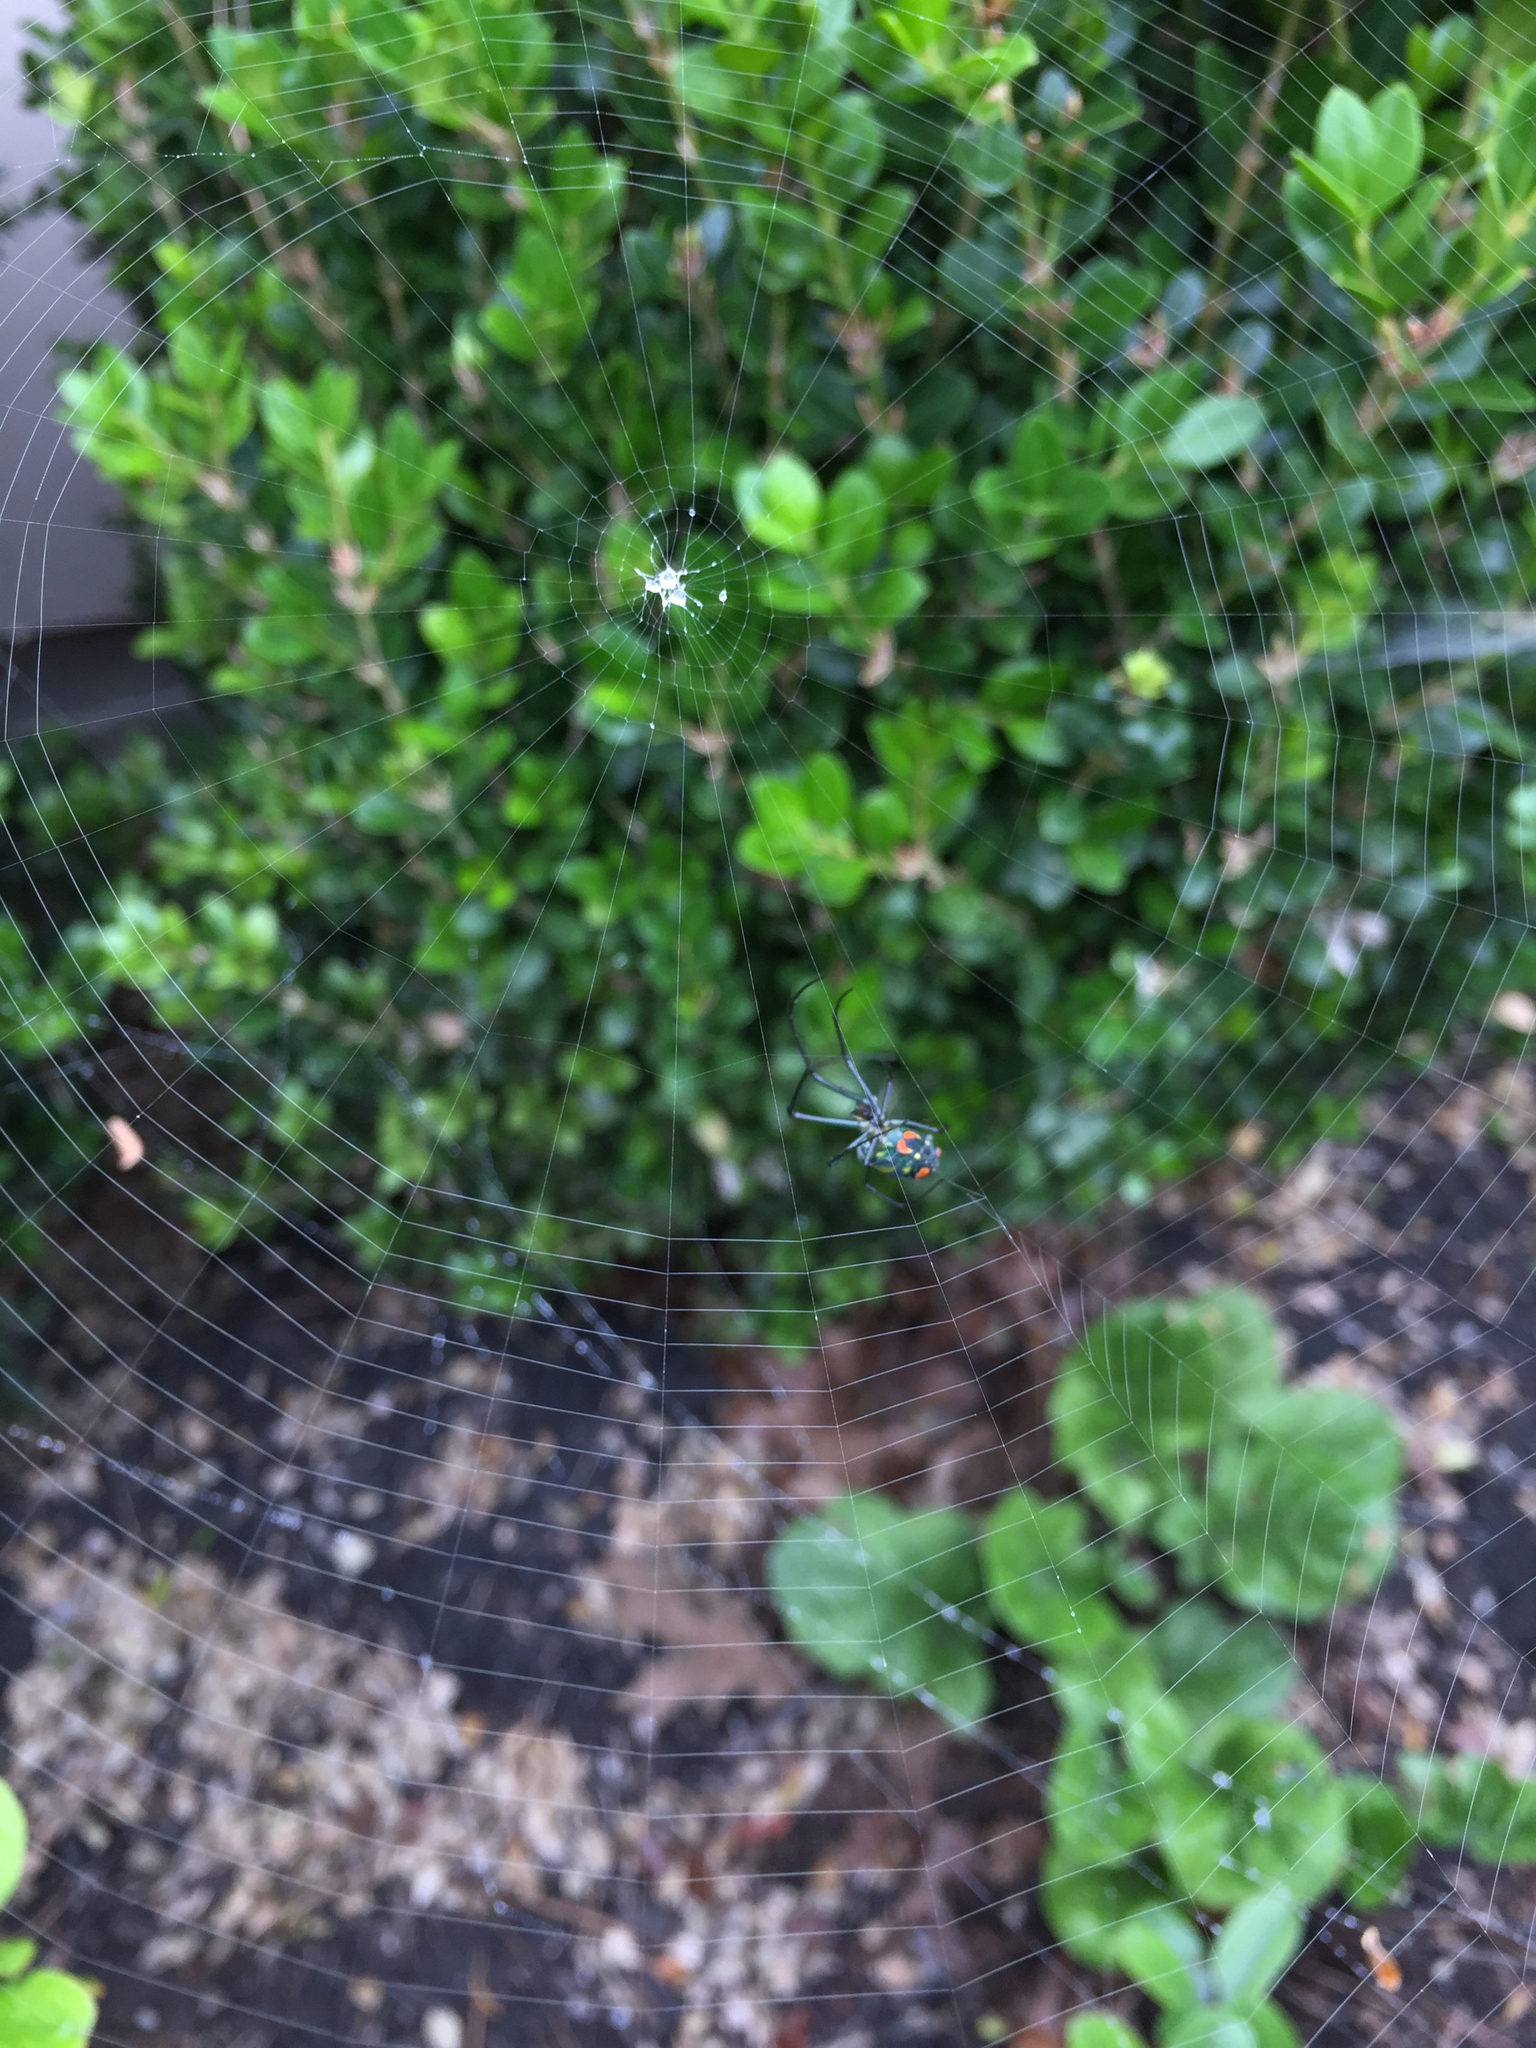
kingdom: Animalia
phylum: Arthropoda
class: Arachnida
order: Araneae
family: Tetragnathidae
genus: Leucauge
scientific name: Leucauge argyrobapta
